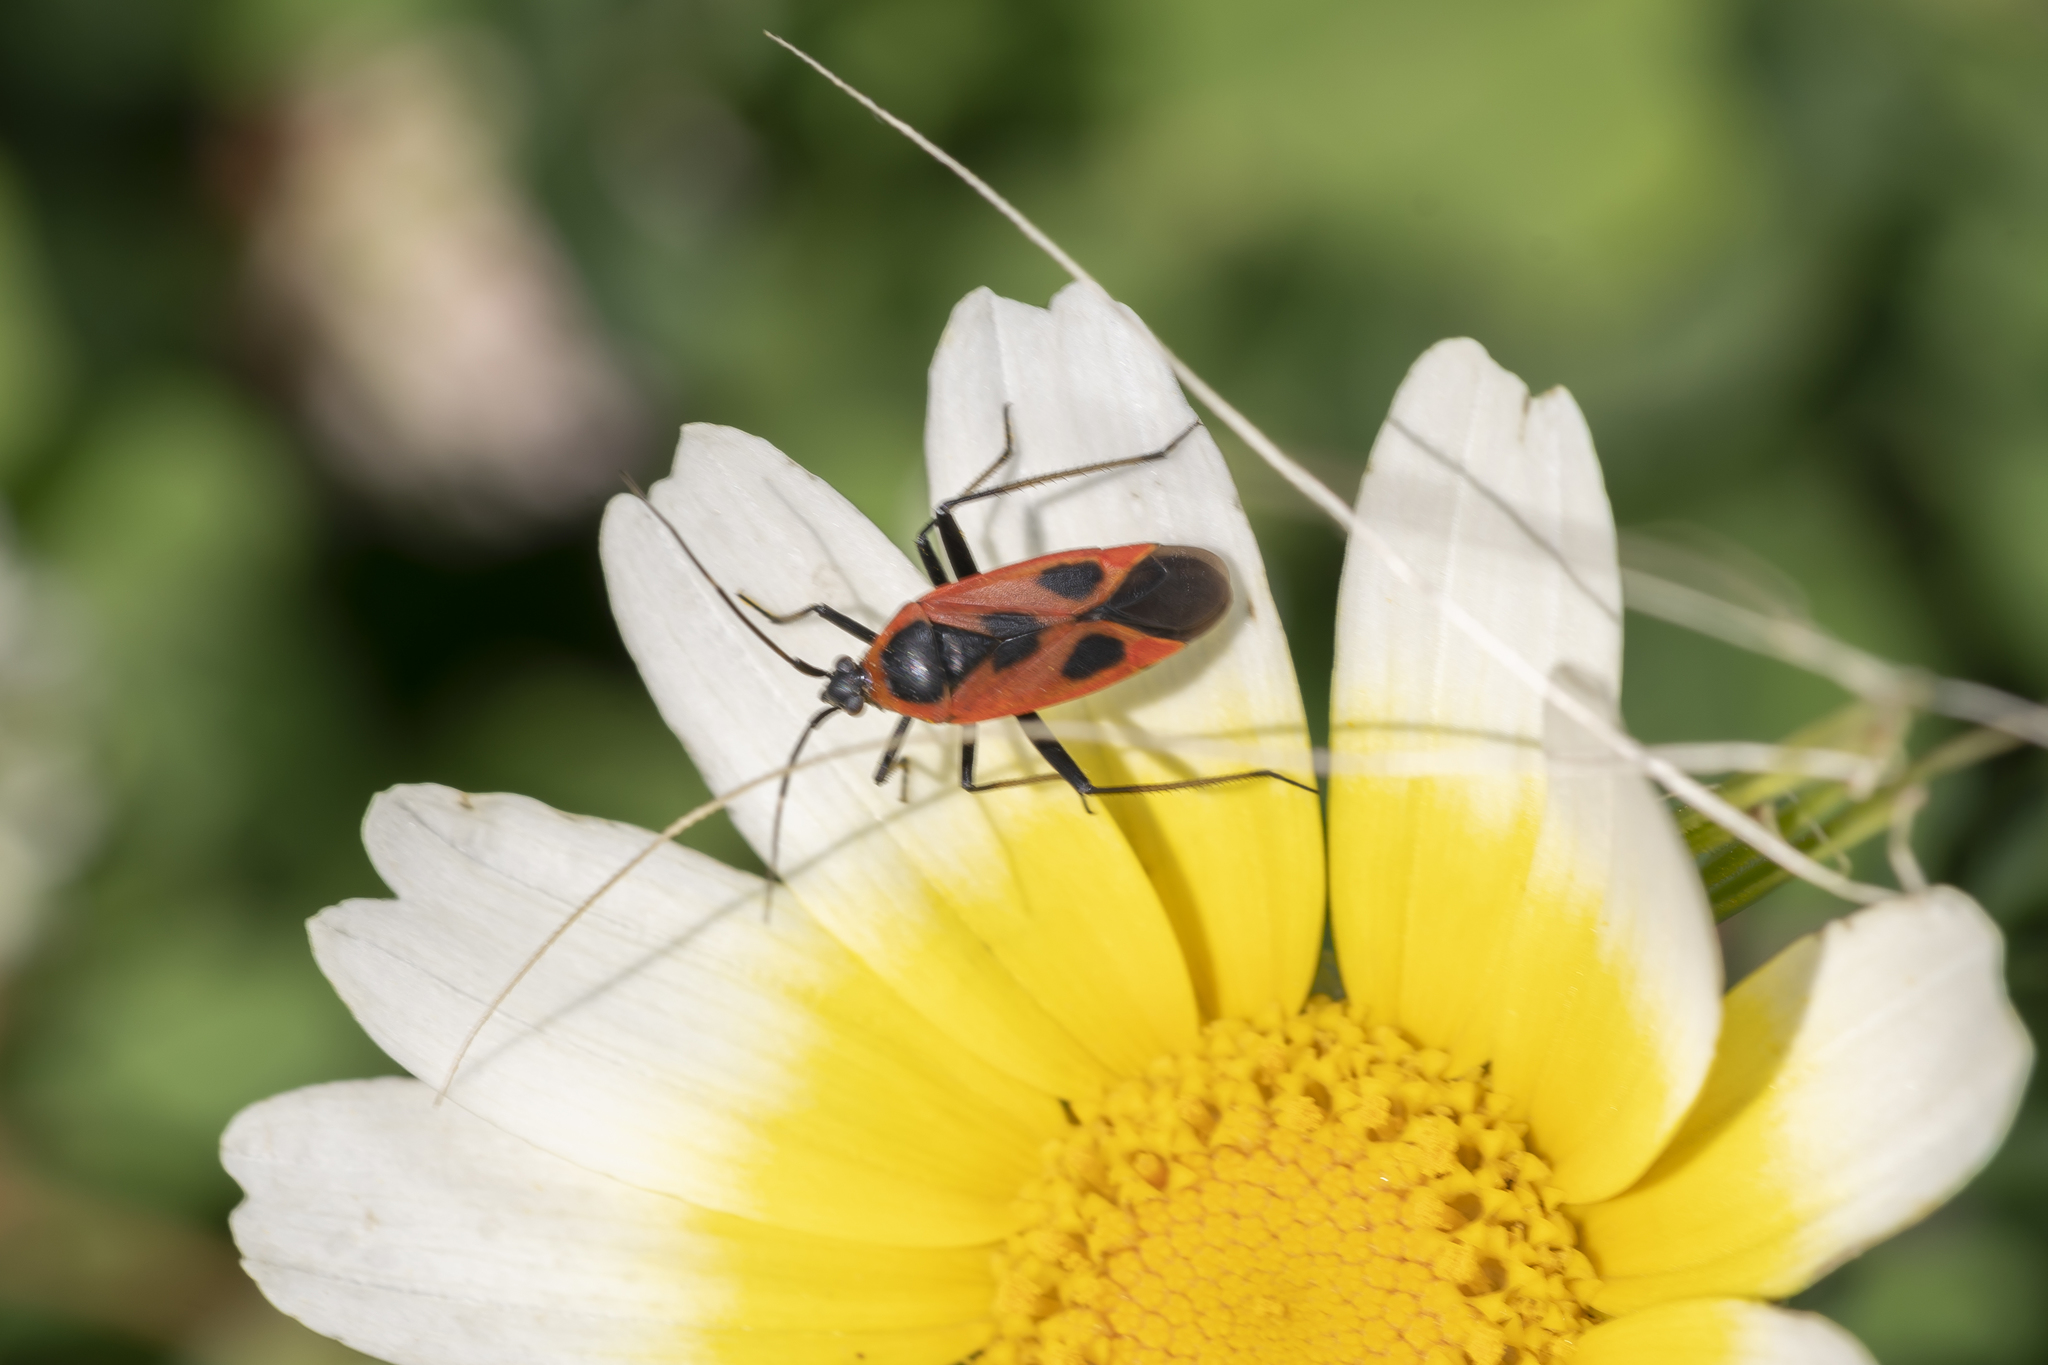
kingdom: Animalia
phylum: Arthropoda
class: Insecta
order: Hemiptera
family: Miridae
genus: Calocoris
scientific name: Calocoris nemoralis
